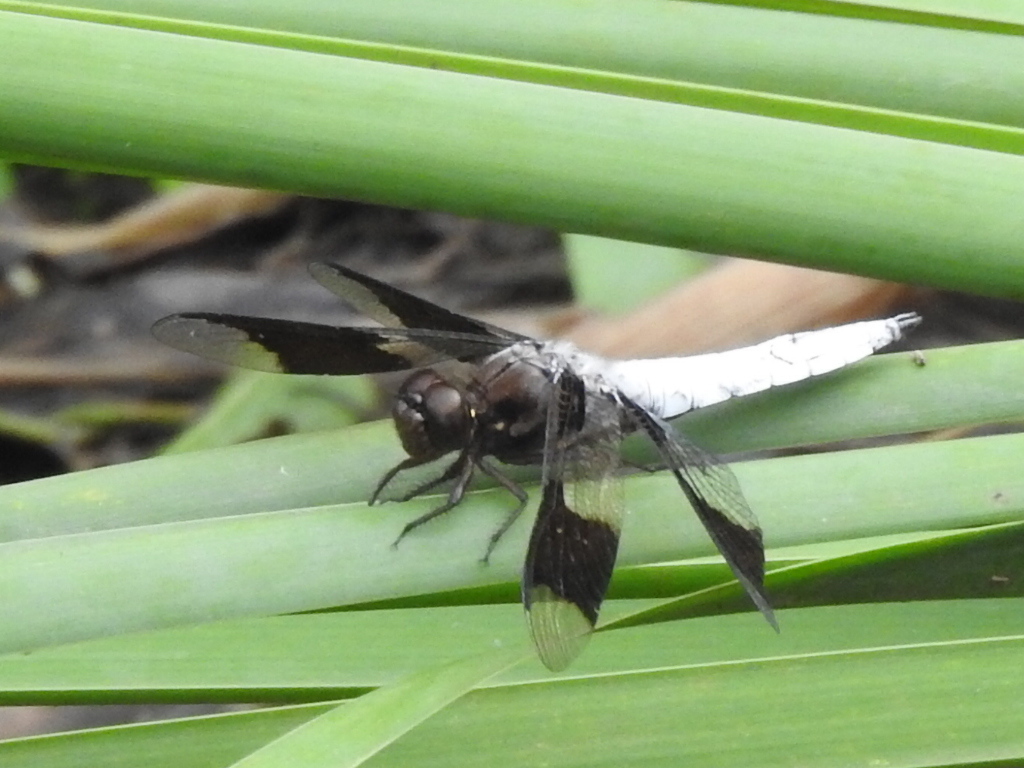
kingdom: Animalia
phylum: Arthropoda
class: Insecta
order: Odonata
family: Libellulidae
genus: Plathemis
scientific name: Plathemis lydia
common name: Common whitetail
